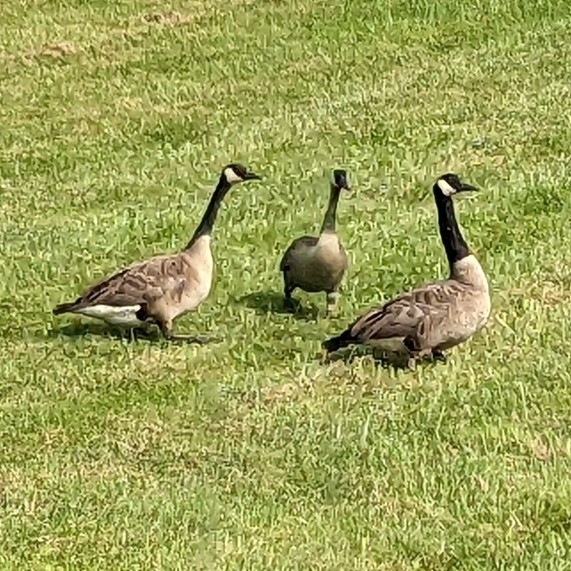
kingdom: Animalia
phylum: Chordata
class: Aves
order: Anseriformes
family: Anatidae
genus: Branta
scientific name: Branta canadensis
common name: Canada goose
